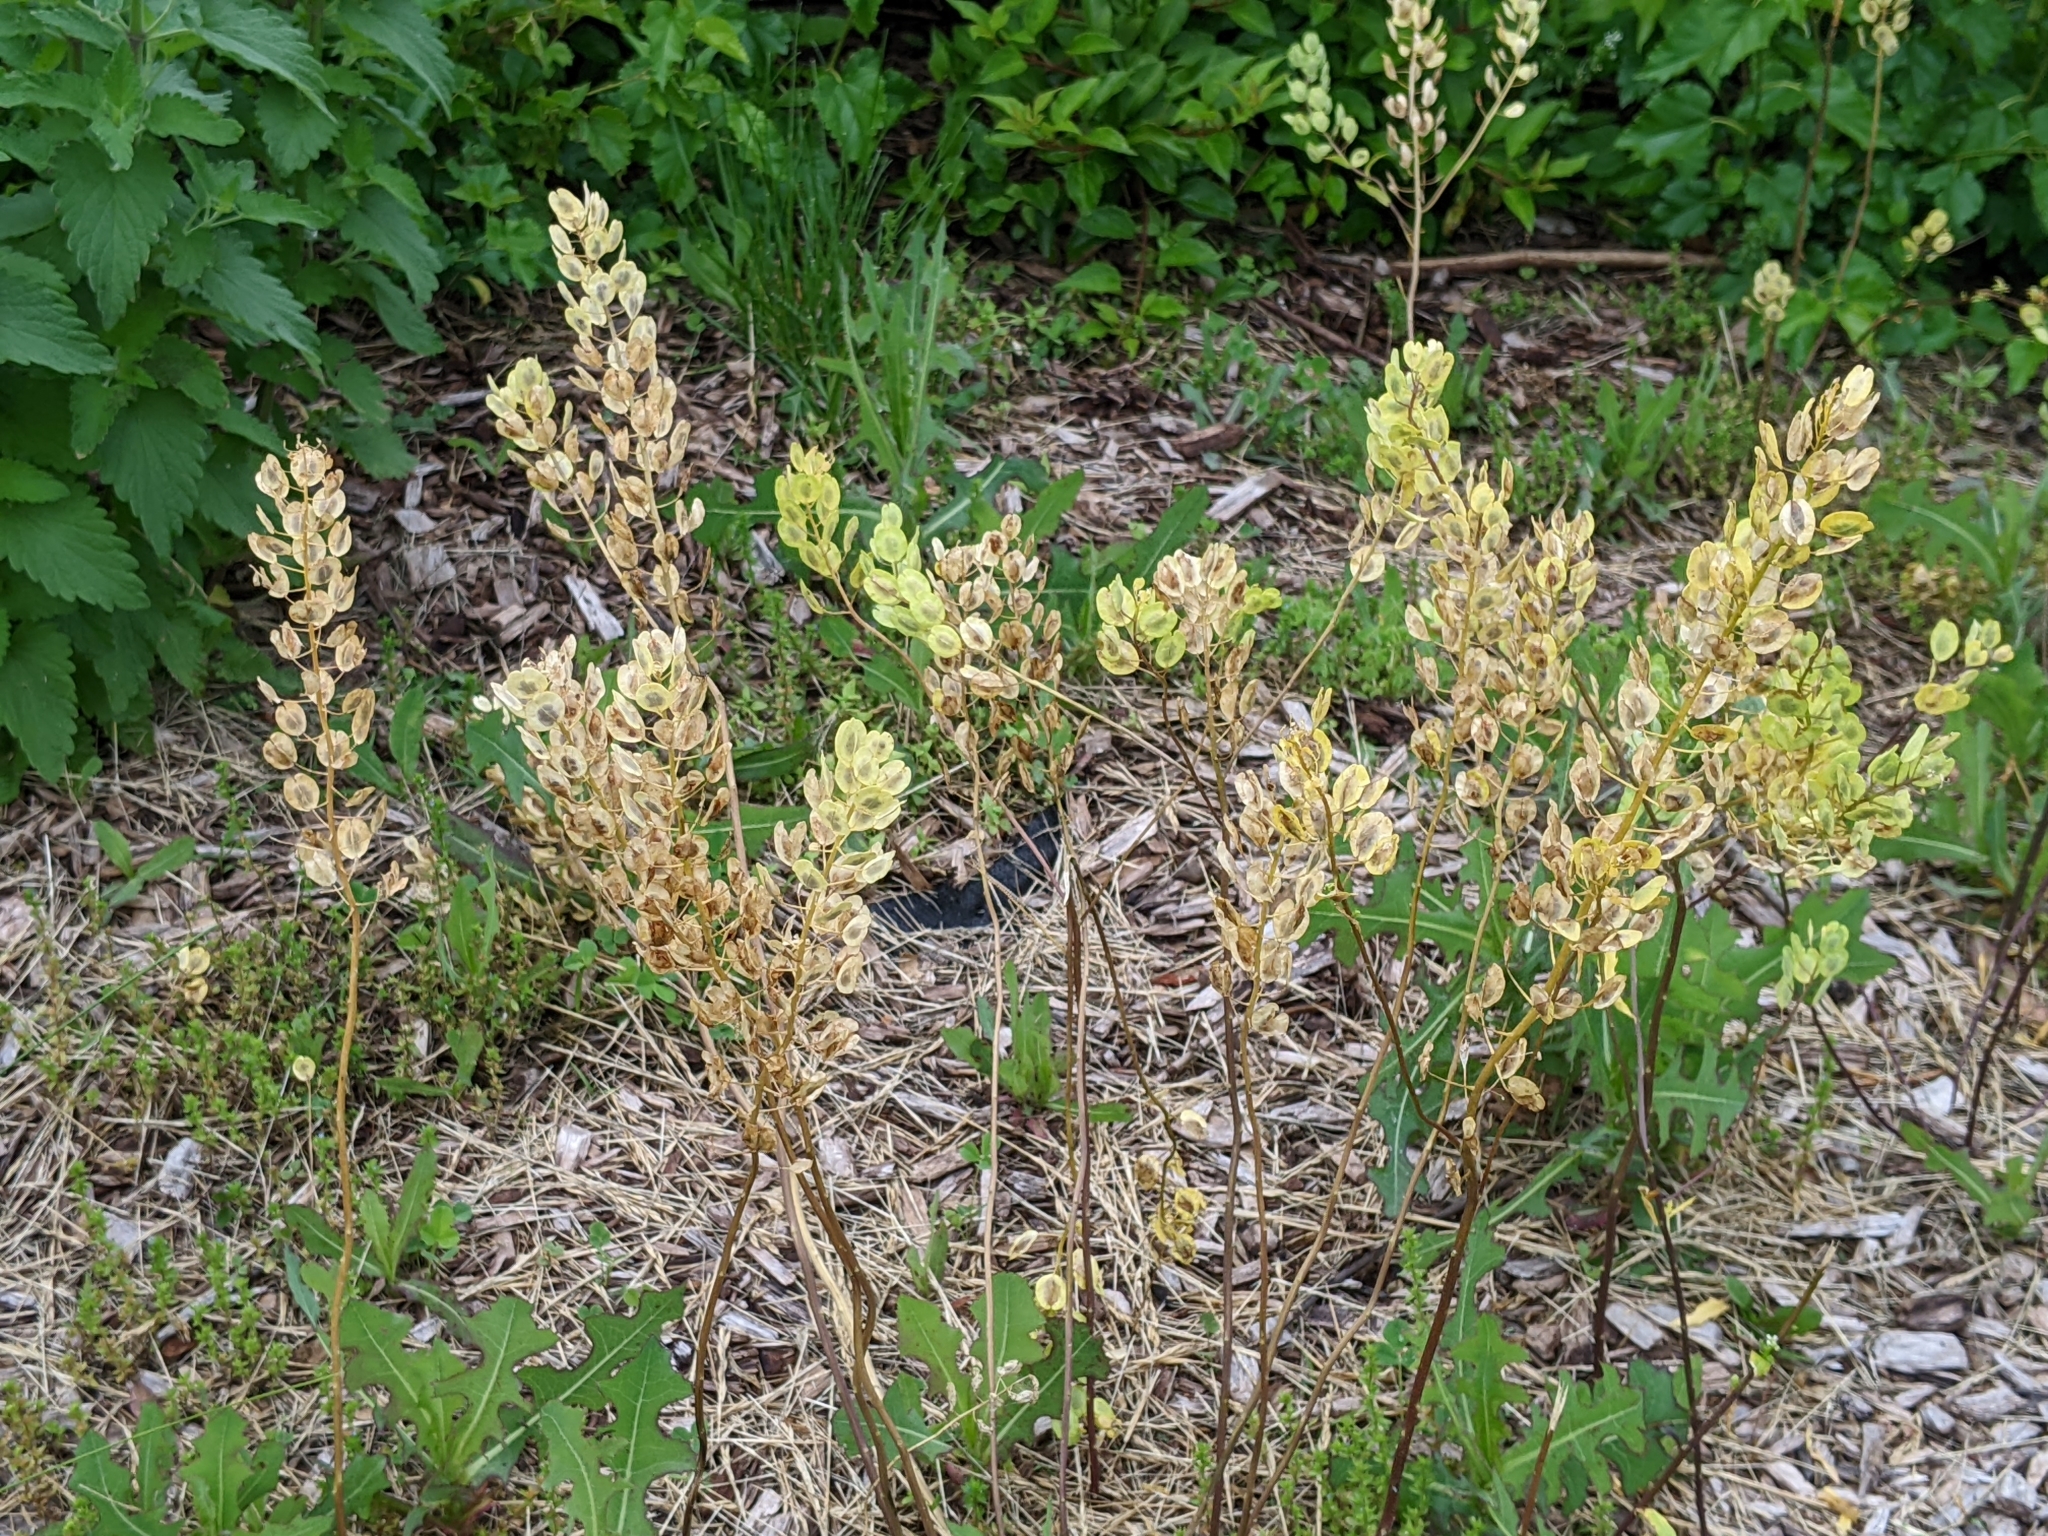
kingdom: Plantae
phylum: Tracheophyta
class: Magnoliopsida
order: Brassicales
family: Brassicaceae
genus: Thlaspi
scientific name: Thlaspi arvense
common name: Field pennycress
